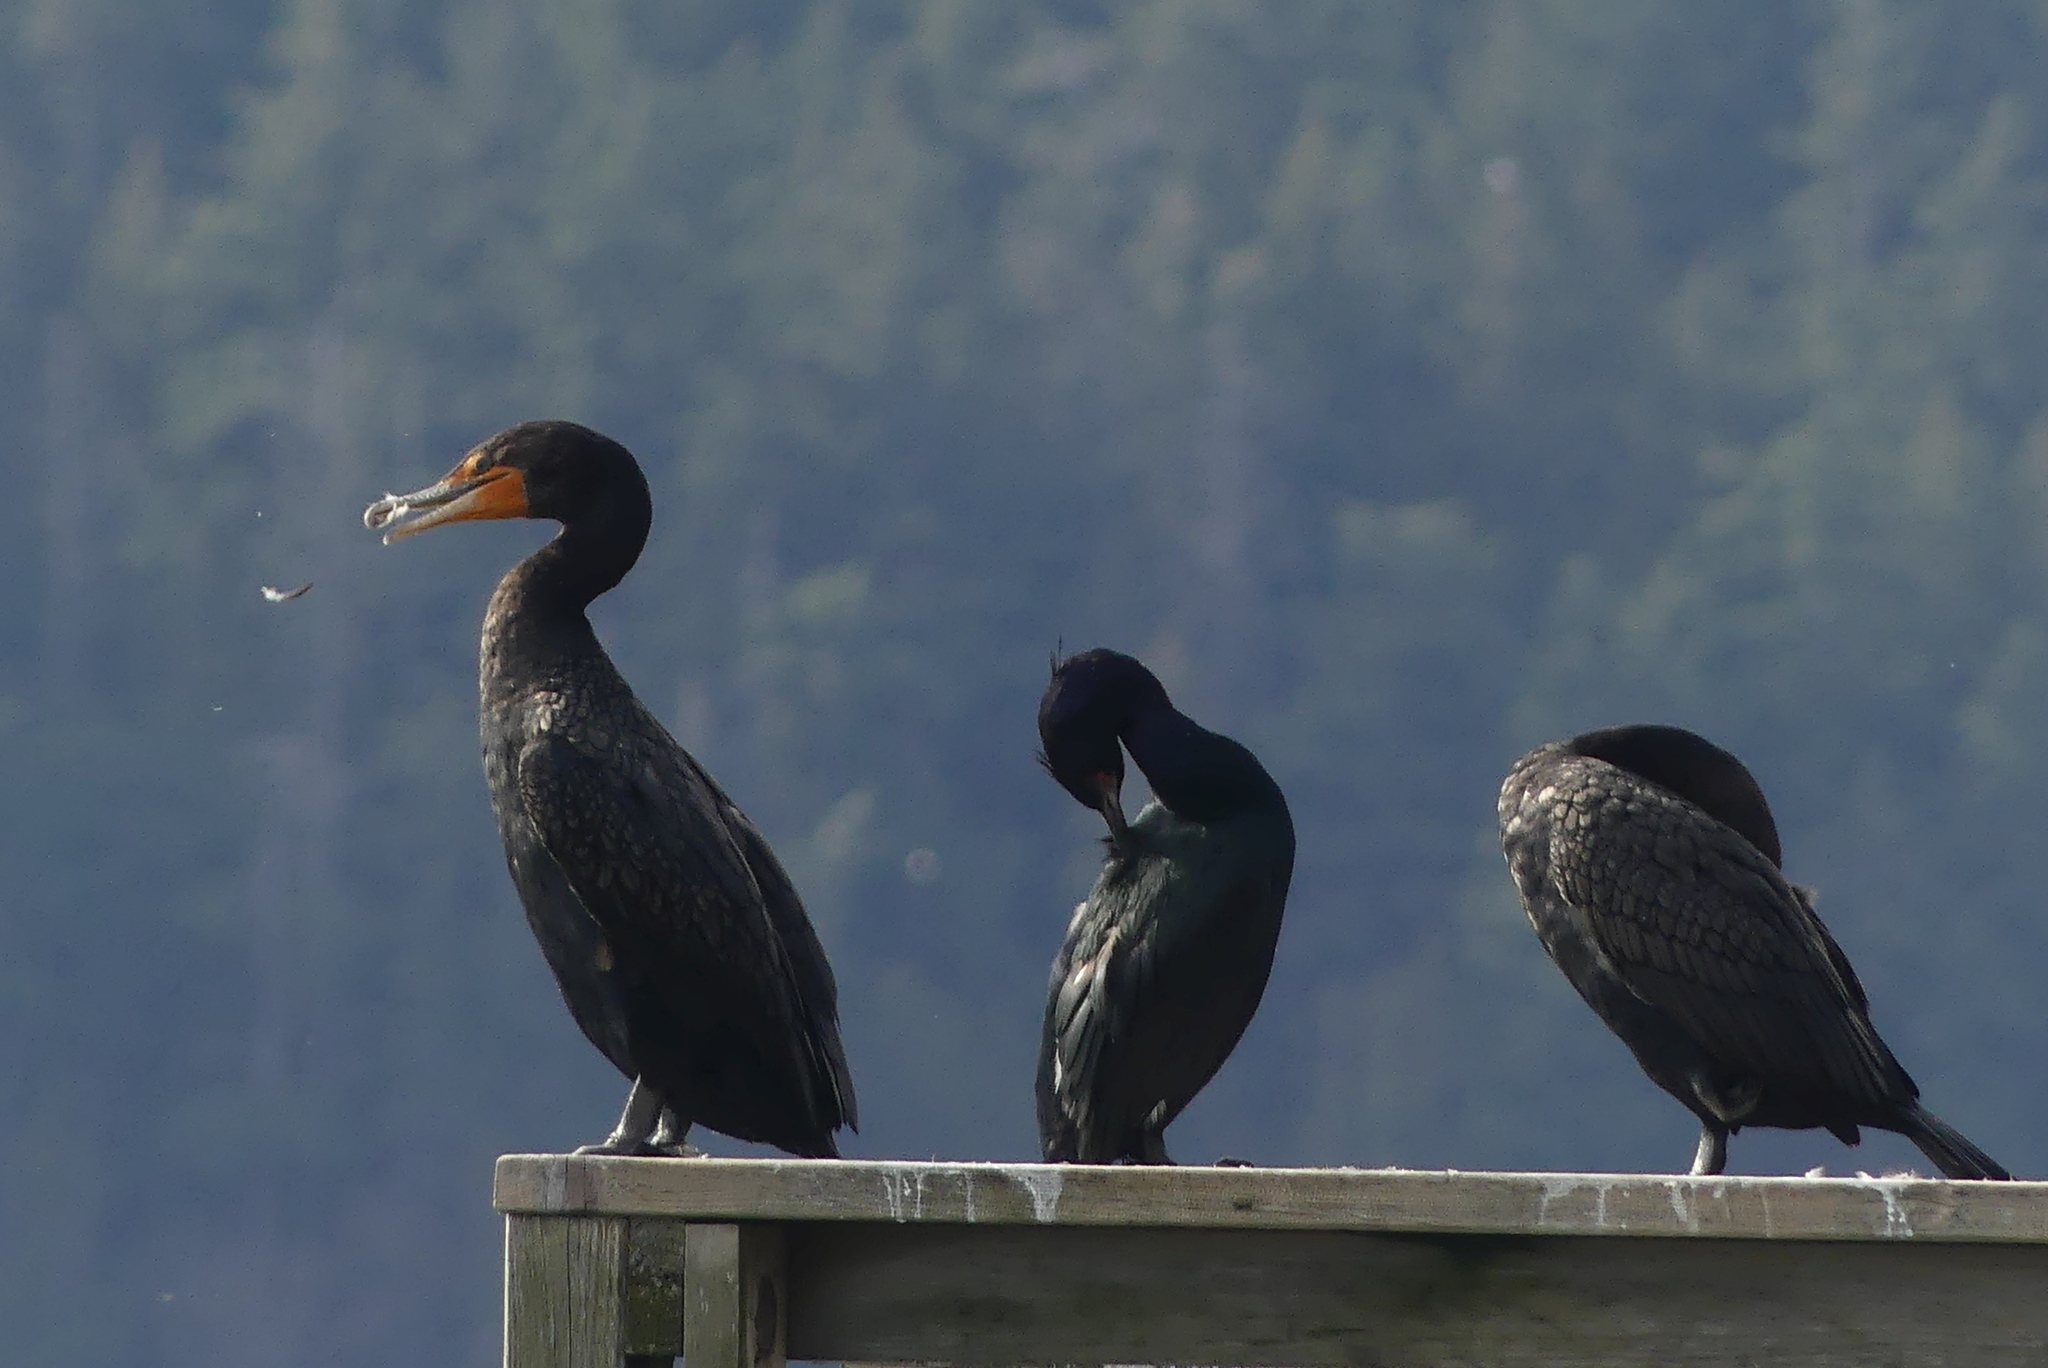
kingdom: Animalia
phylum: Chordata
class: Aves
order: Suliformes
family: Phalacrocoracidae
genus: Phalacrocorax
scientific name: Phalacrocorax auritus
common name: Double-crested cormorant
